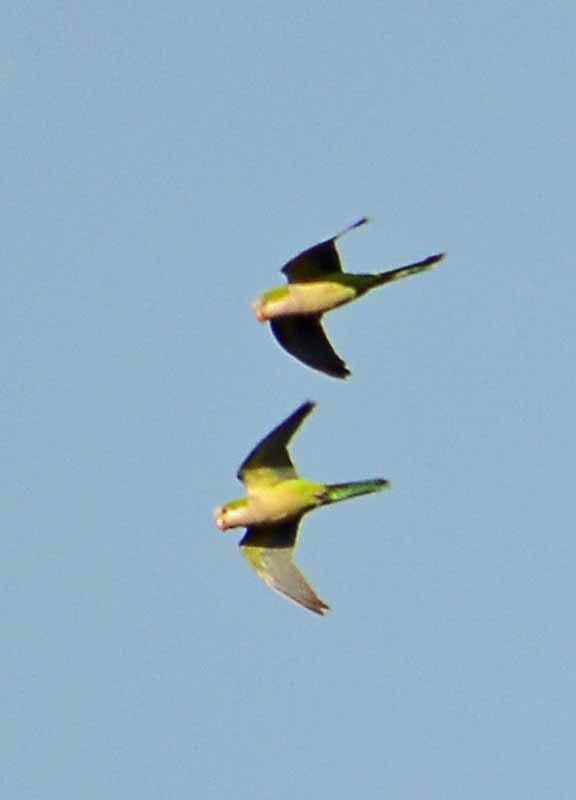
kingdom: Animalia
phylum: Chordata
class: Aves
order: Psittaciformes
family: Psittacidae
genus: Myiopsitta
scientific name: Myiopsitta monachus
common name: Monk parakeet
